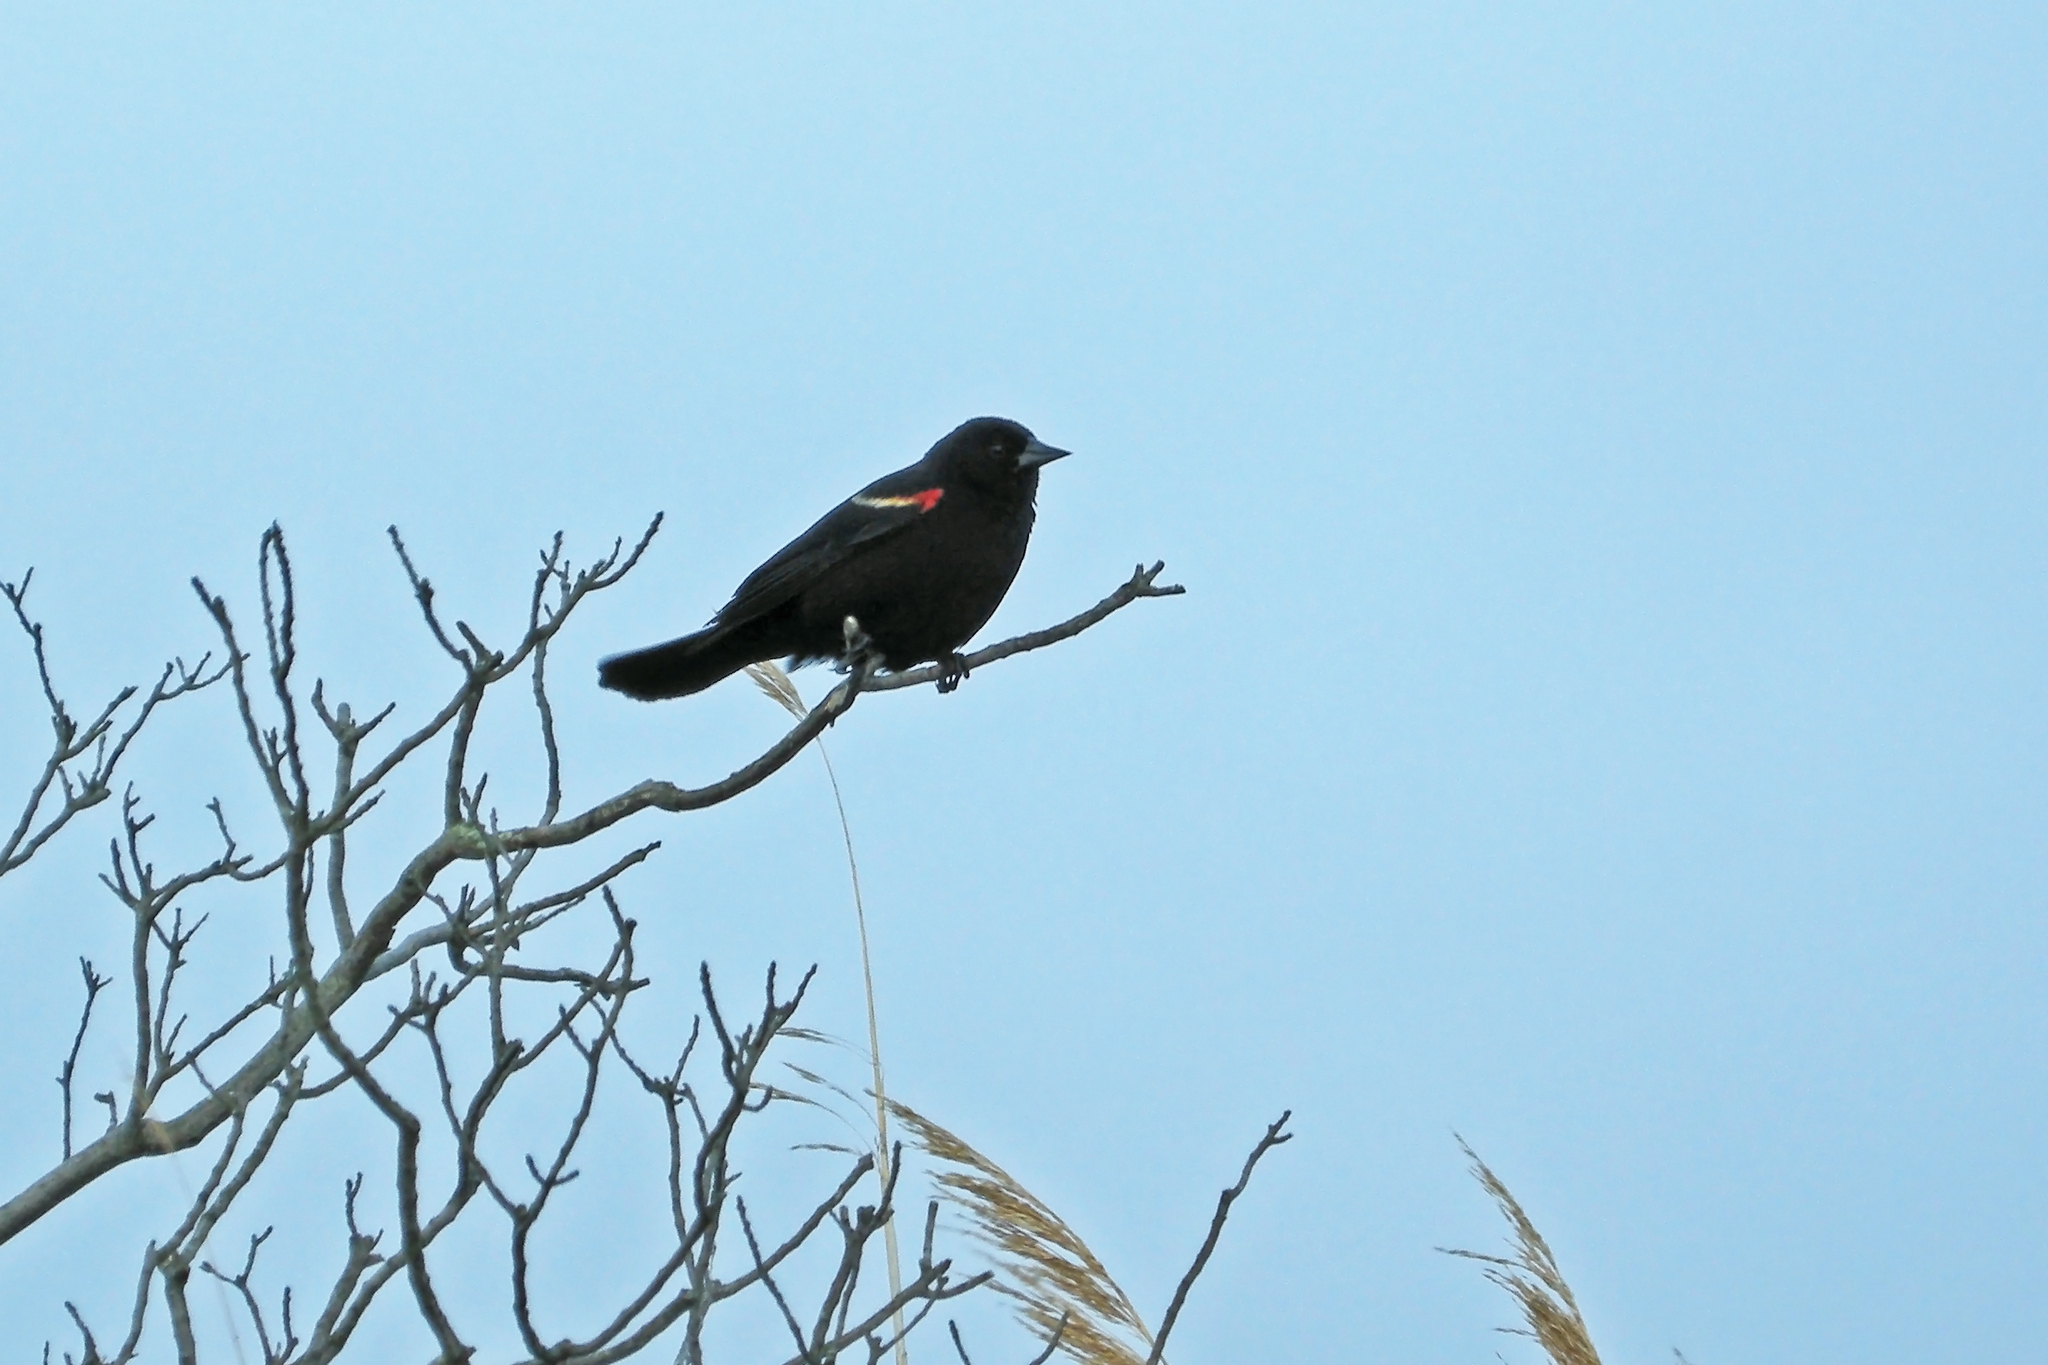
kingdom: Animalia
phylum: Chordata
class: Aves
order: Passeriformes
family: Icteridae
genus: Agelaius
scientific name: Agelaius phoeniceus
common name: Red-winged blackbird
